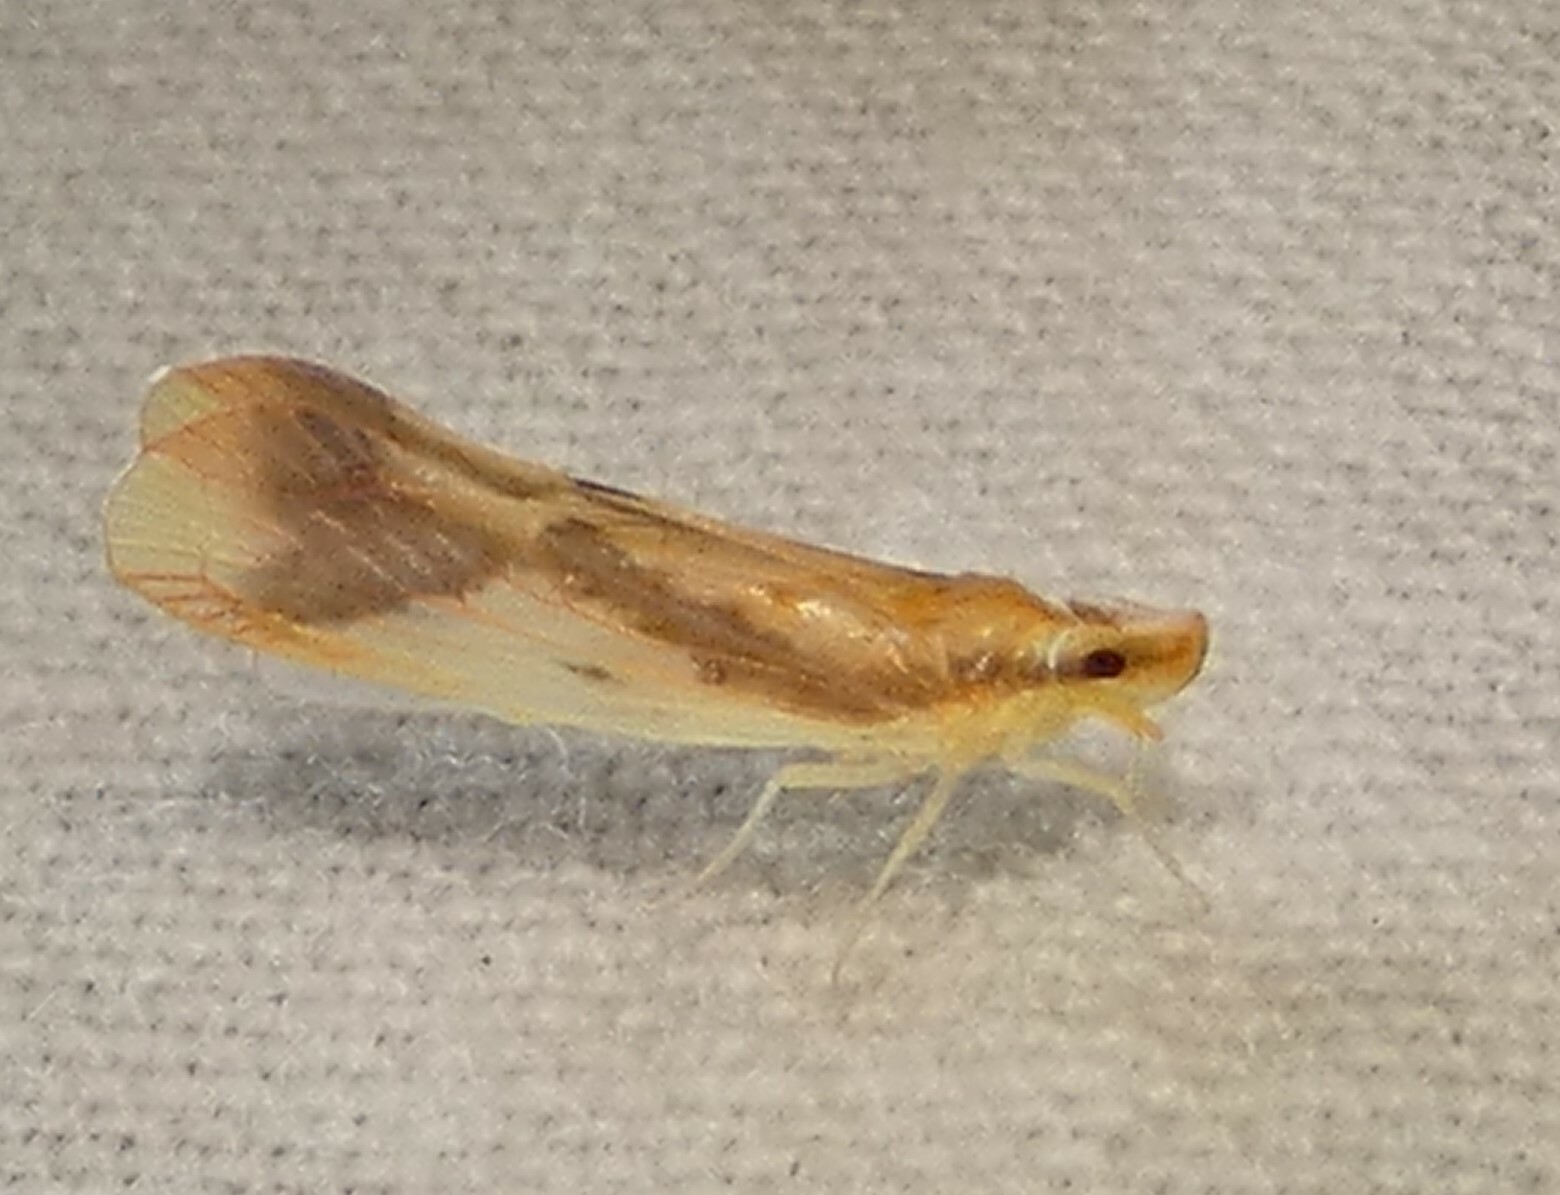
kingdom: Animalia
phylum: Arthropoda
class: Insecta
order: Hemiptera
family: Derbidae
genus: Otiocerus
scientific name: Otiocerus reaumurii
